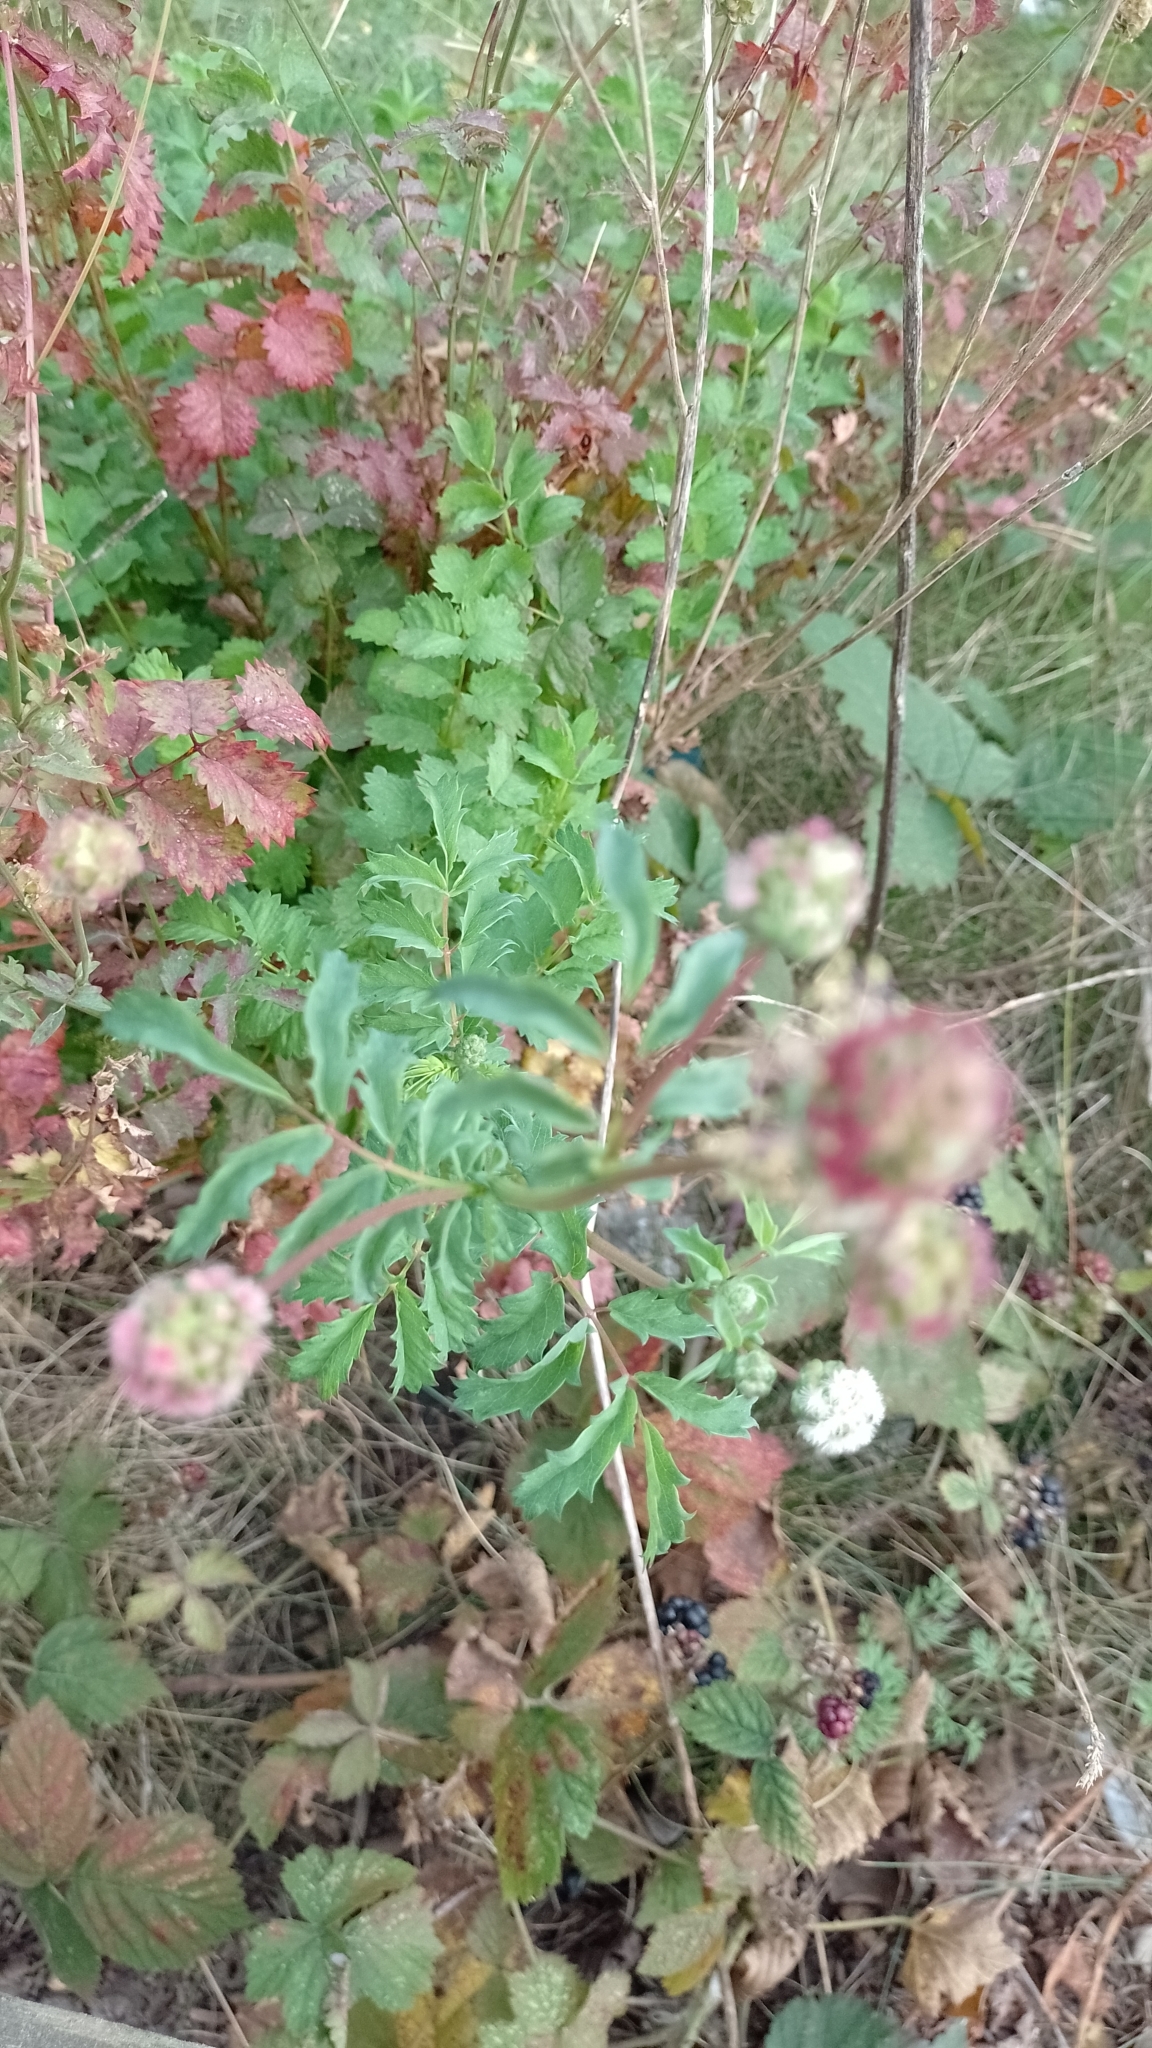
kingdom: Plantae
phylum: Tracheophyta
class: Magnoliopsida
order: Rosales
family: Rosaceae
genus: Poterium
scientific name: Poterium sanguisorba
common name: Salad burnet
